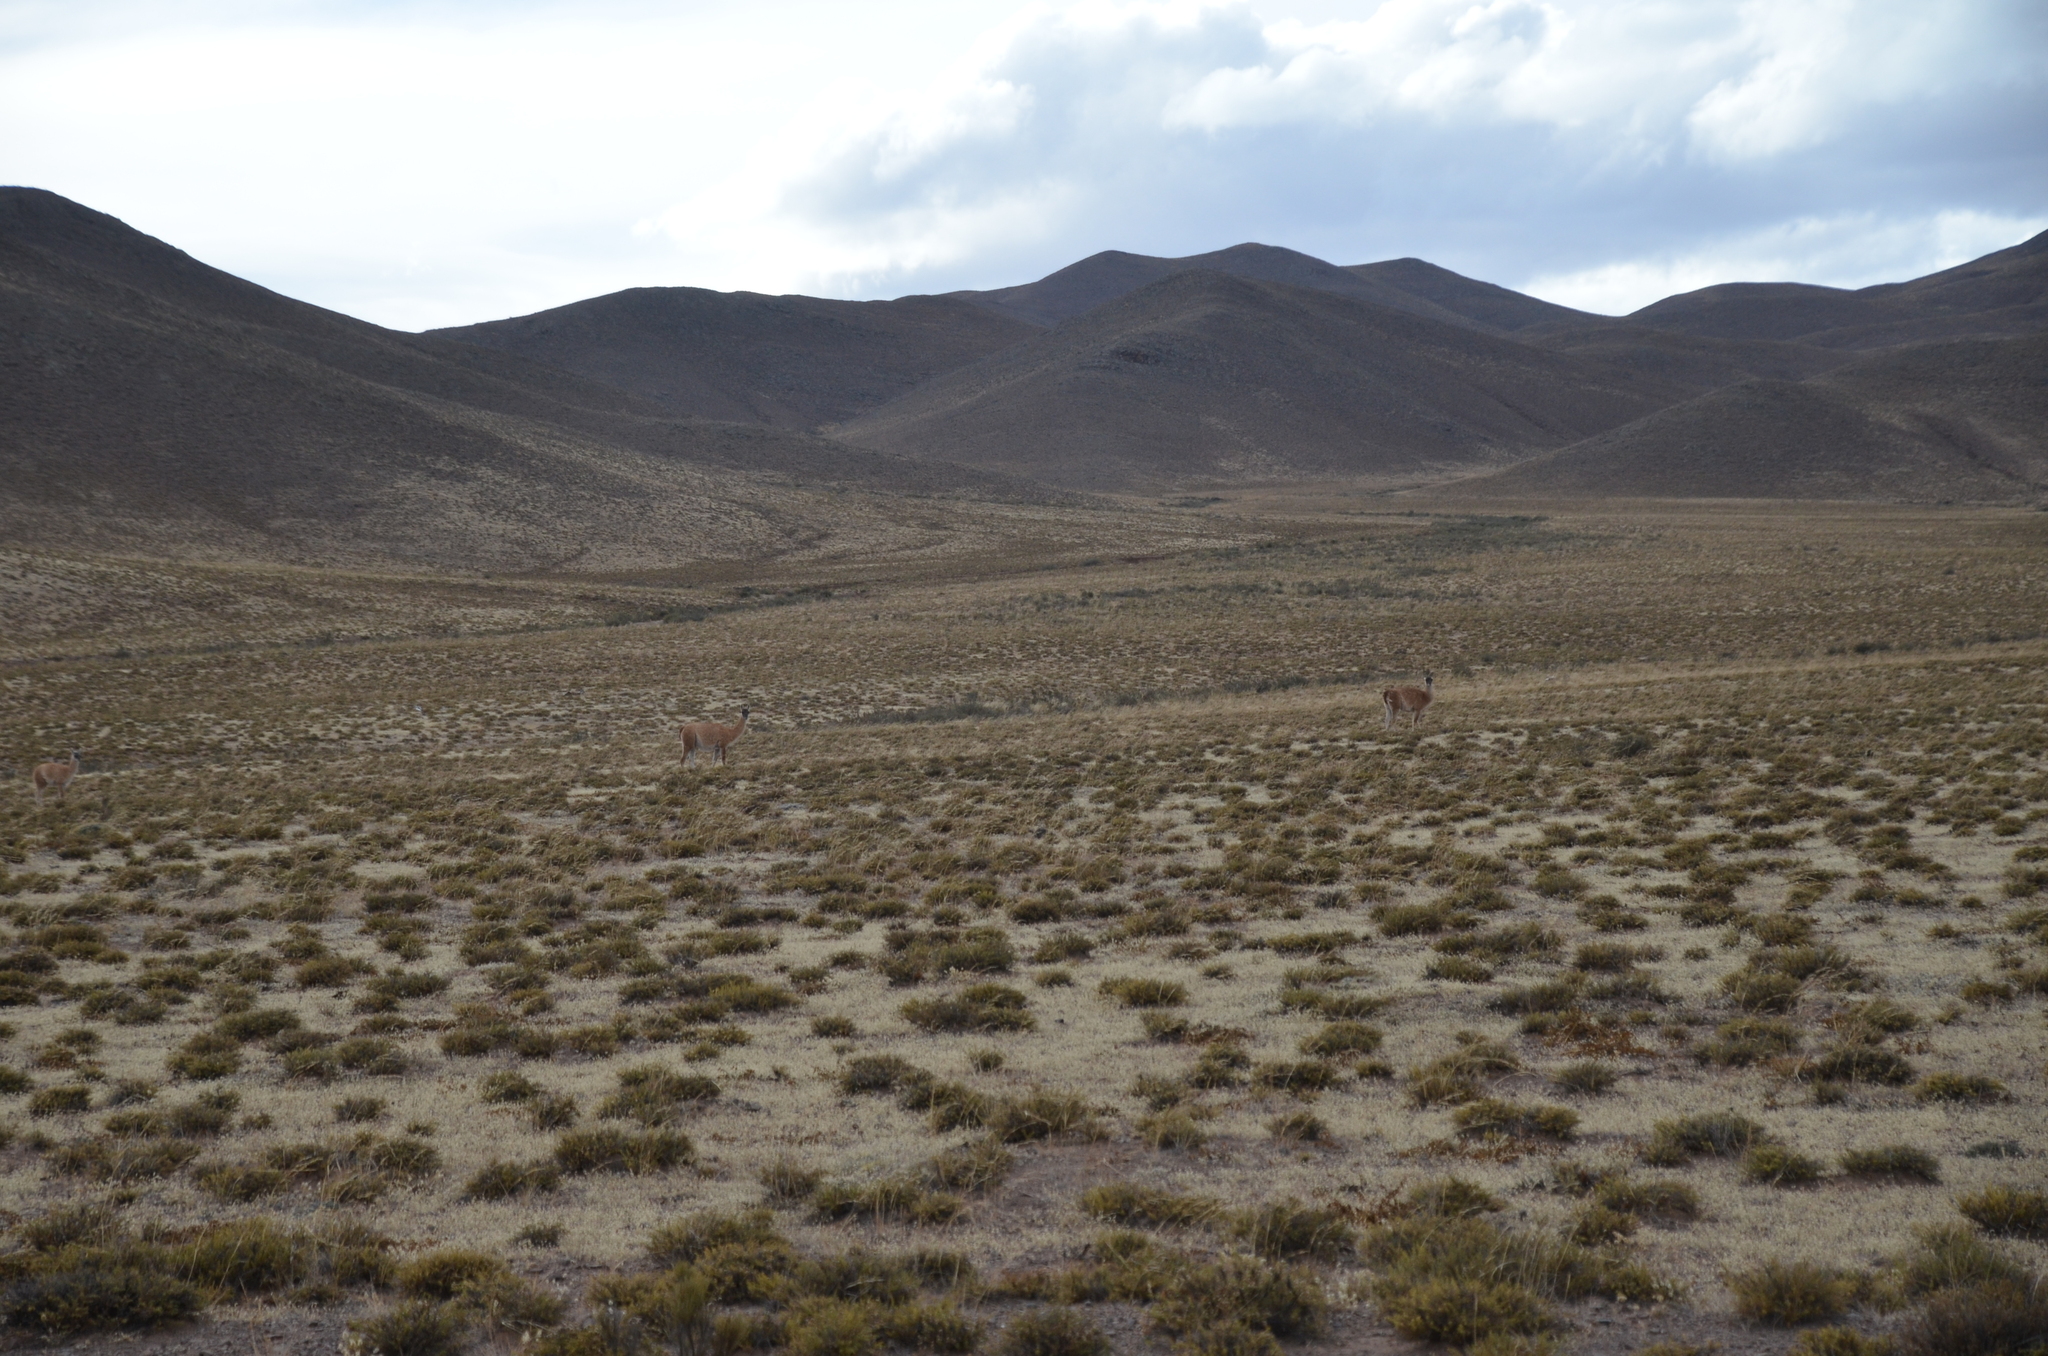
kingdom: Animalia
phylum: Chordata
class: Mammalia
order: Artiodactyla
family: Camelidae
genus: Lama
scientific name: Lama glama
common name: Llama
